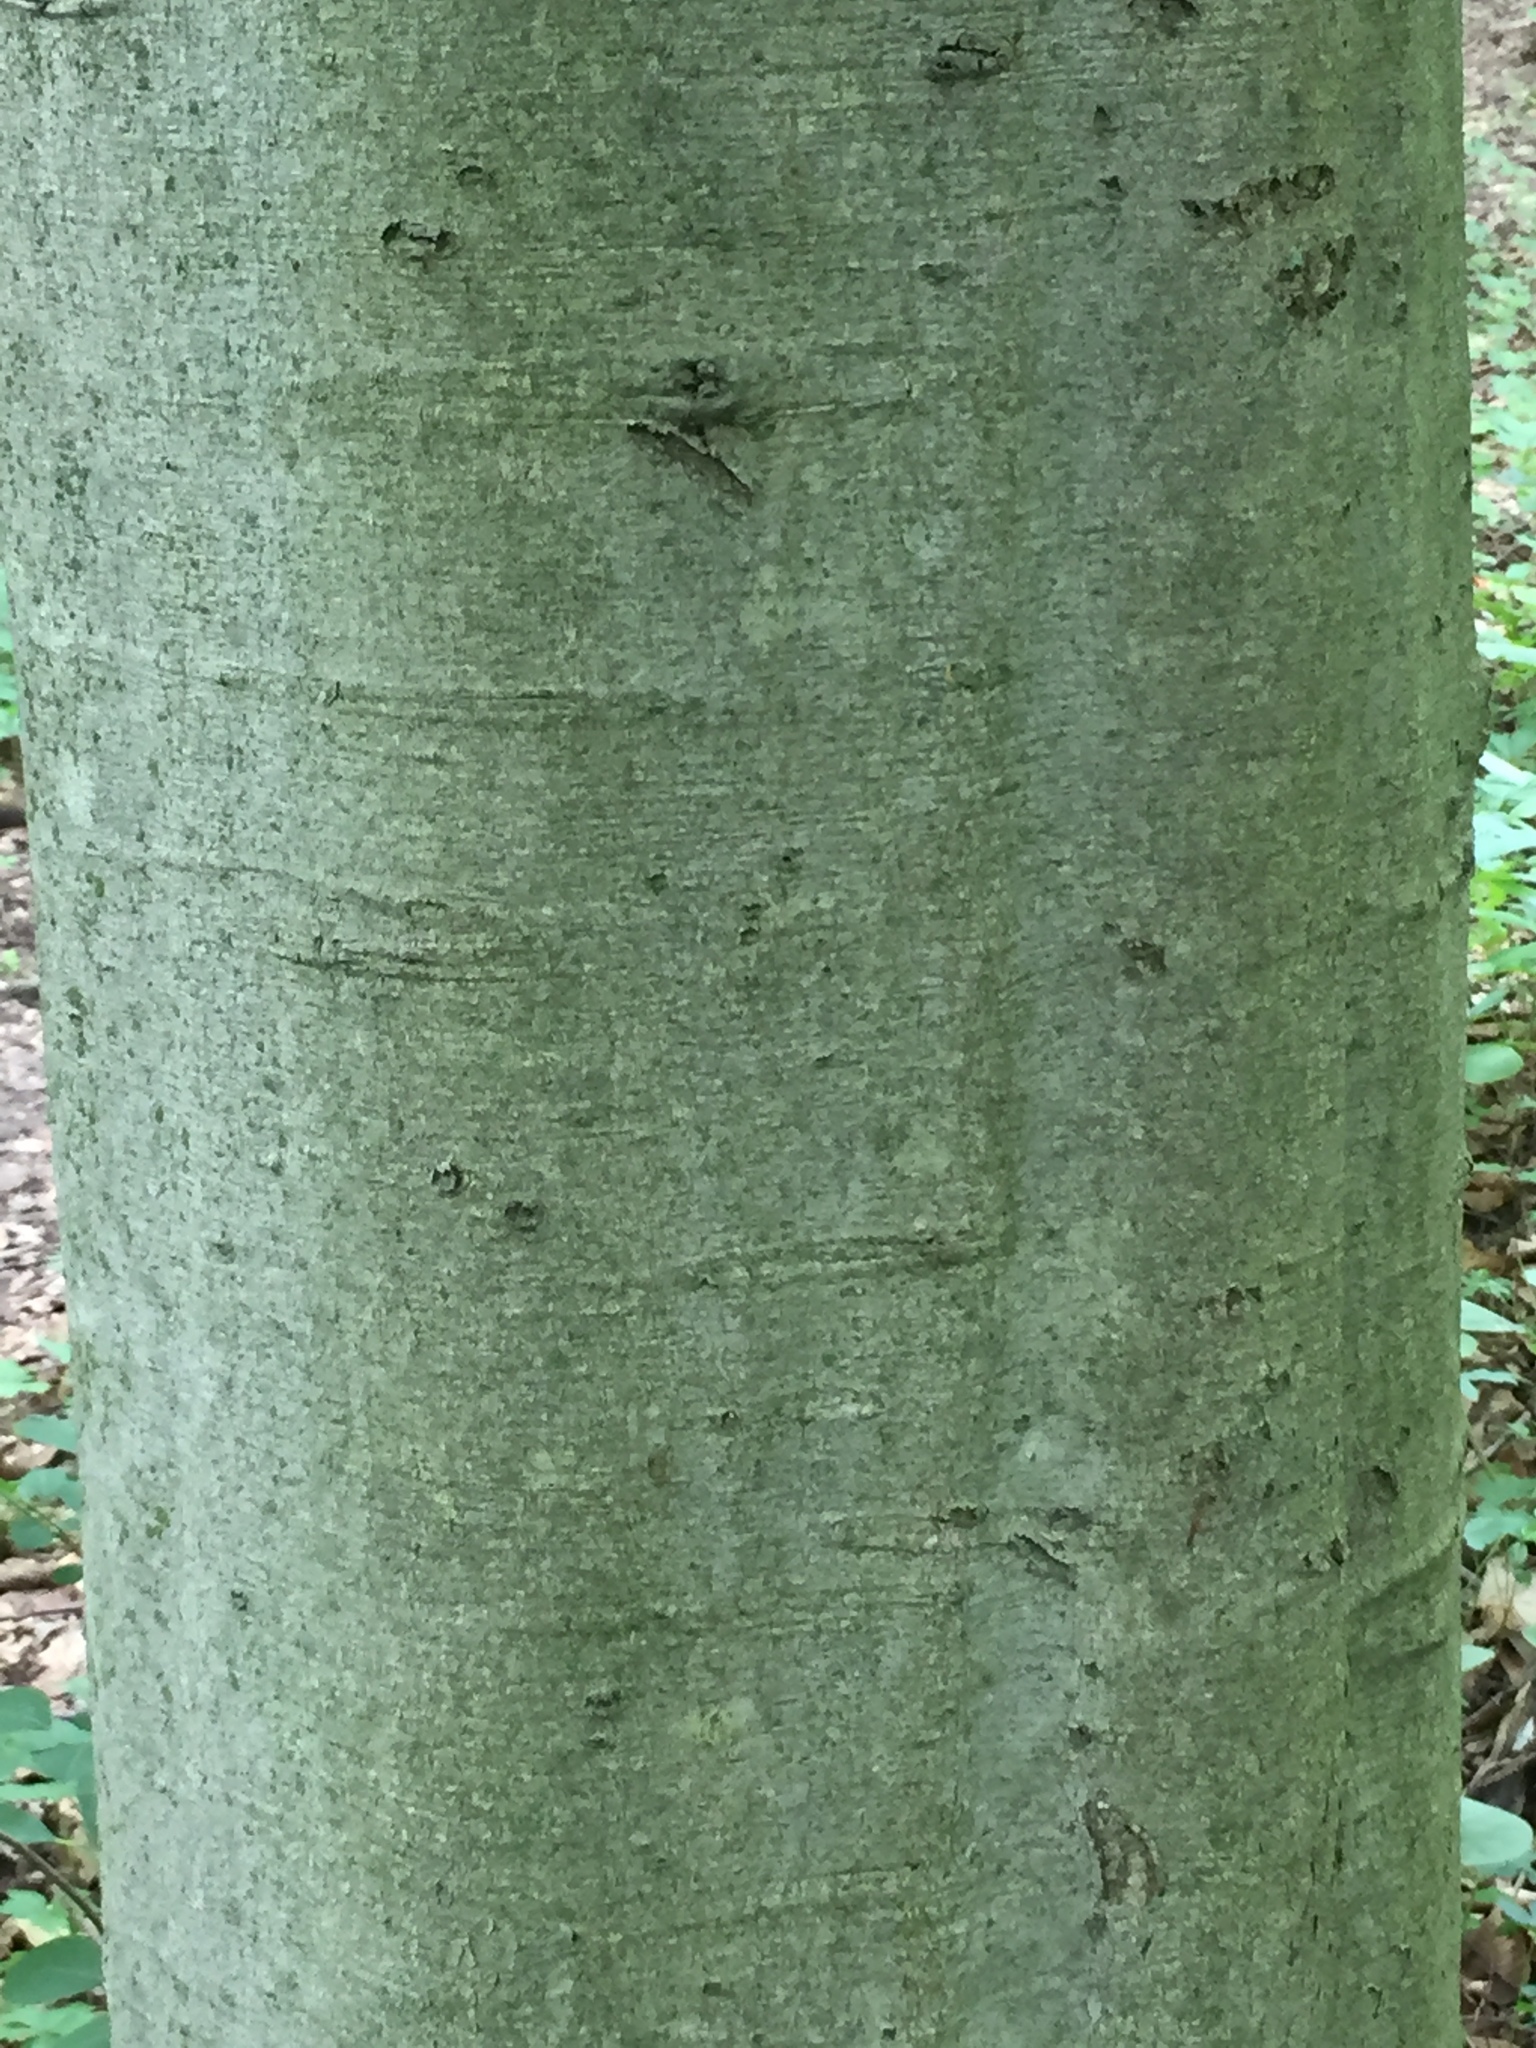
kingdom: Plantae
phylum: Tracheophyta
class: Magnoliopsida
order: Fagales
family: Fagaceae
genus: Fagus
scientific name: Fagus grandifolia
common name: American beech
